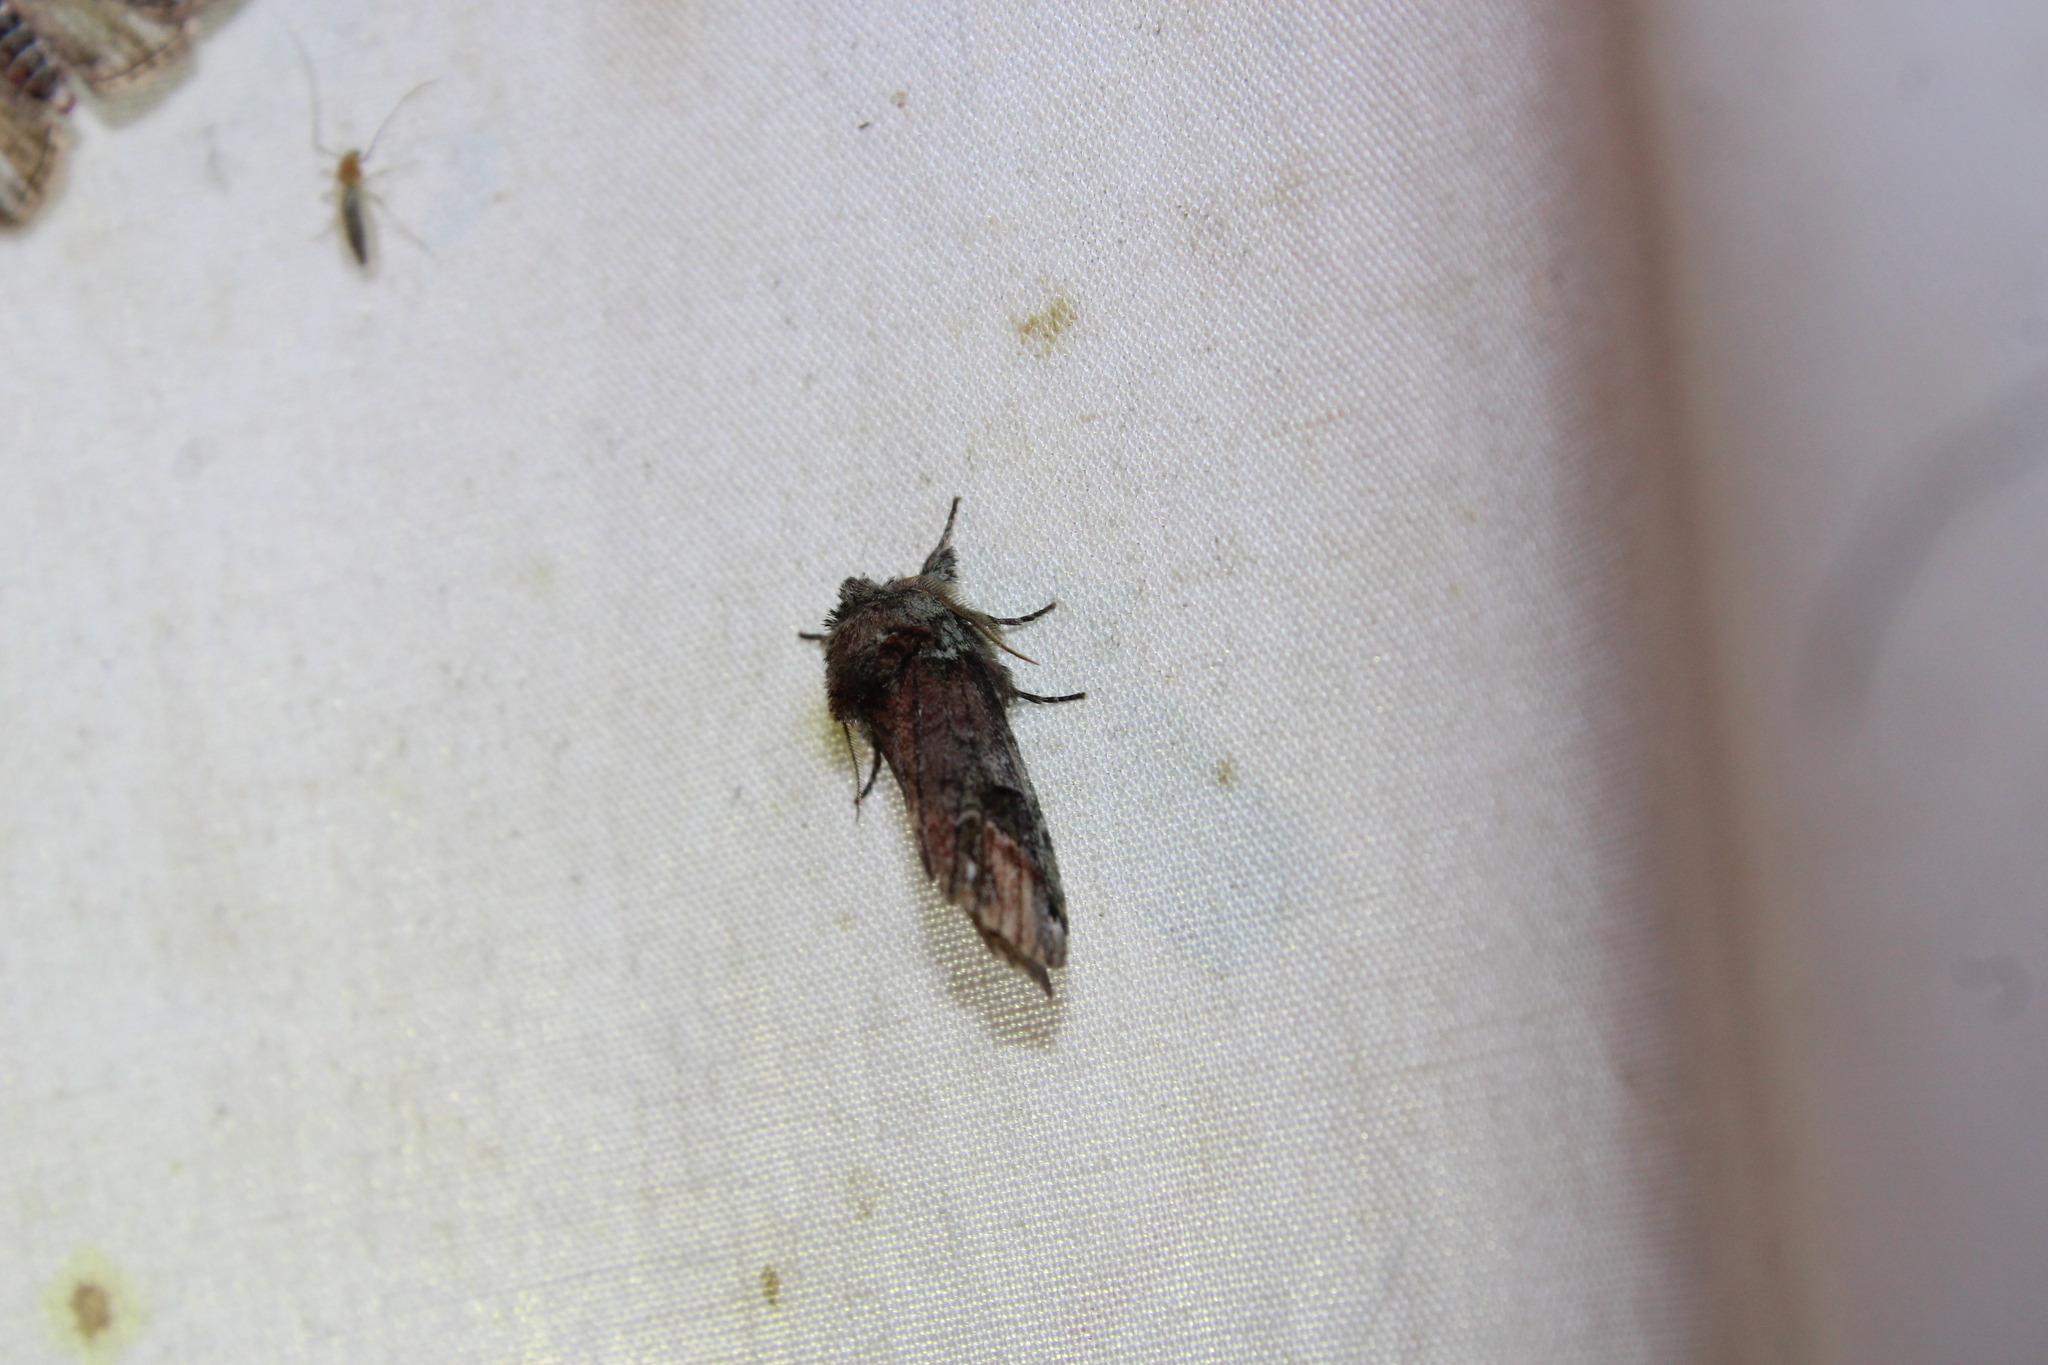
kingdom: Animalia
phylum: Arthropoda
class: Insecta
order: Lepidoptera
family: Notodontidae
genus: Schizura
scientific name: Schizura
